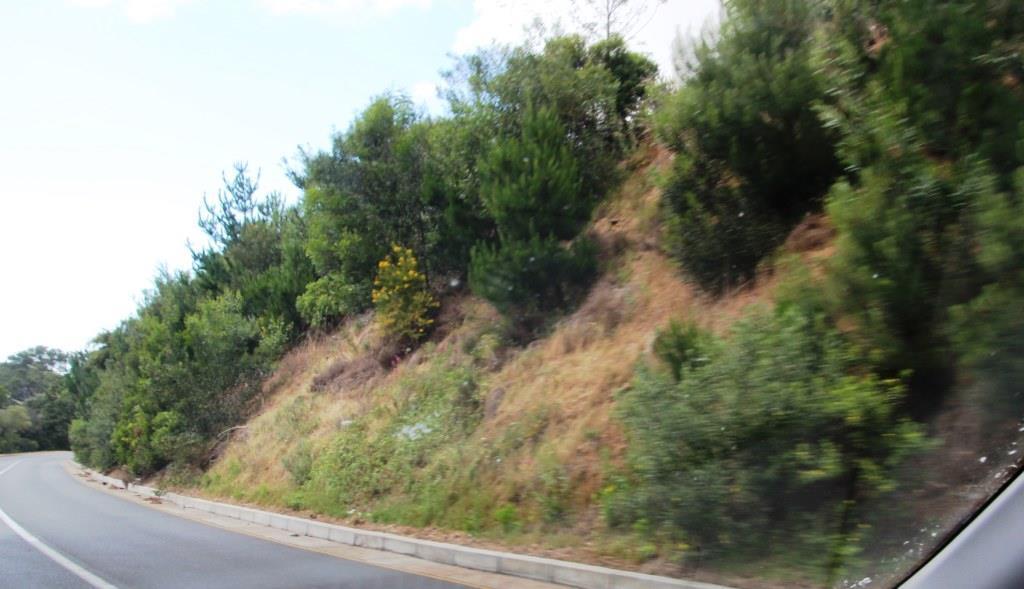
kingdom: Plantae
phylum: Tracheophyta
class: Magnoliopsida
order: Dipsacales
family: Caprifoliaceae
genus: Centranthus
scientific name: Centranthus ruber
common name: Red valerian
